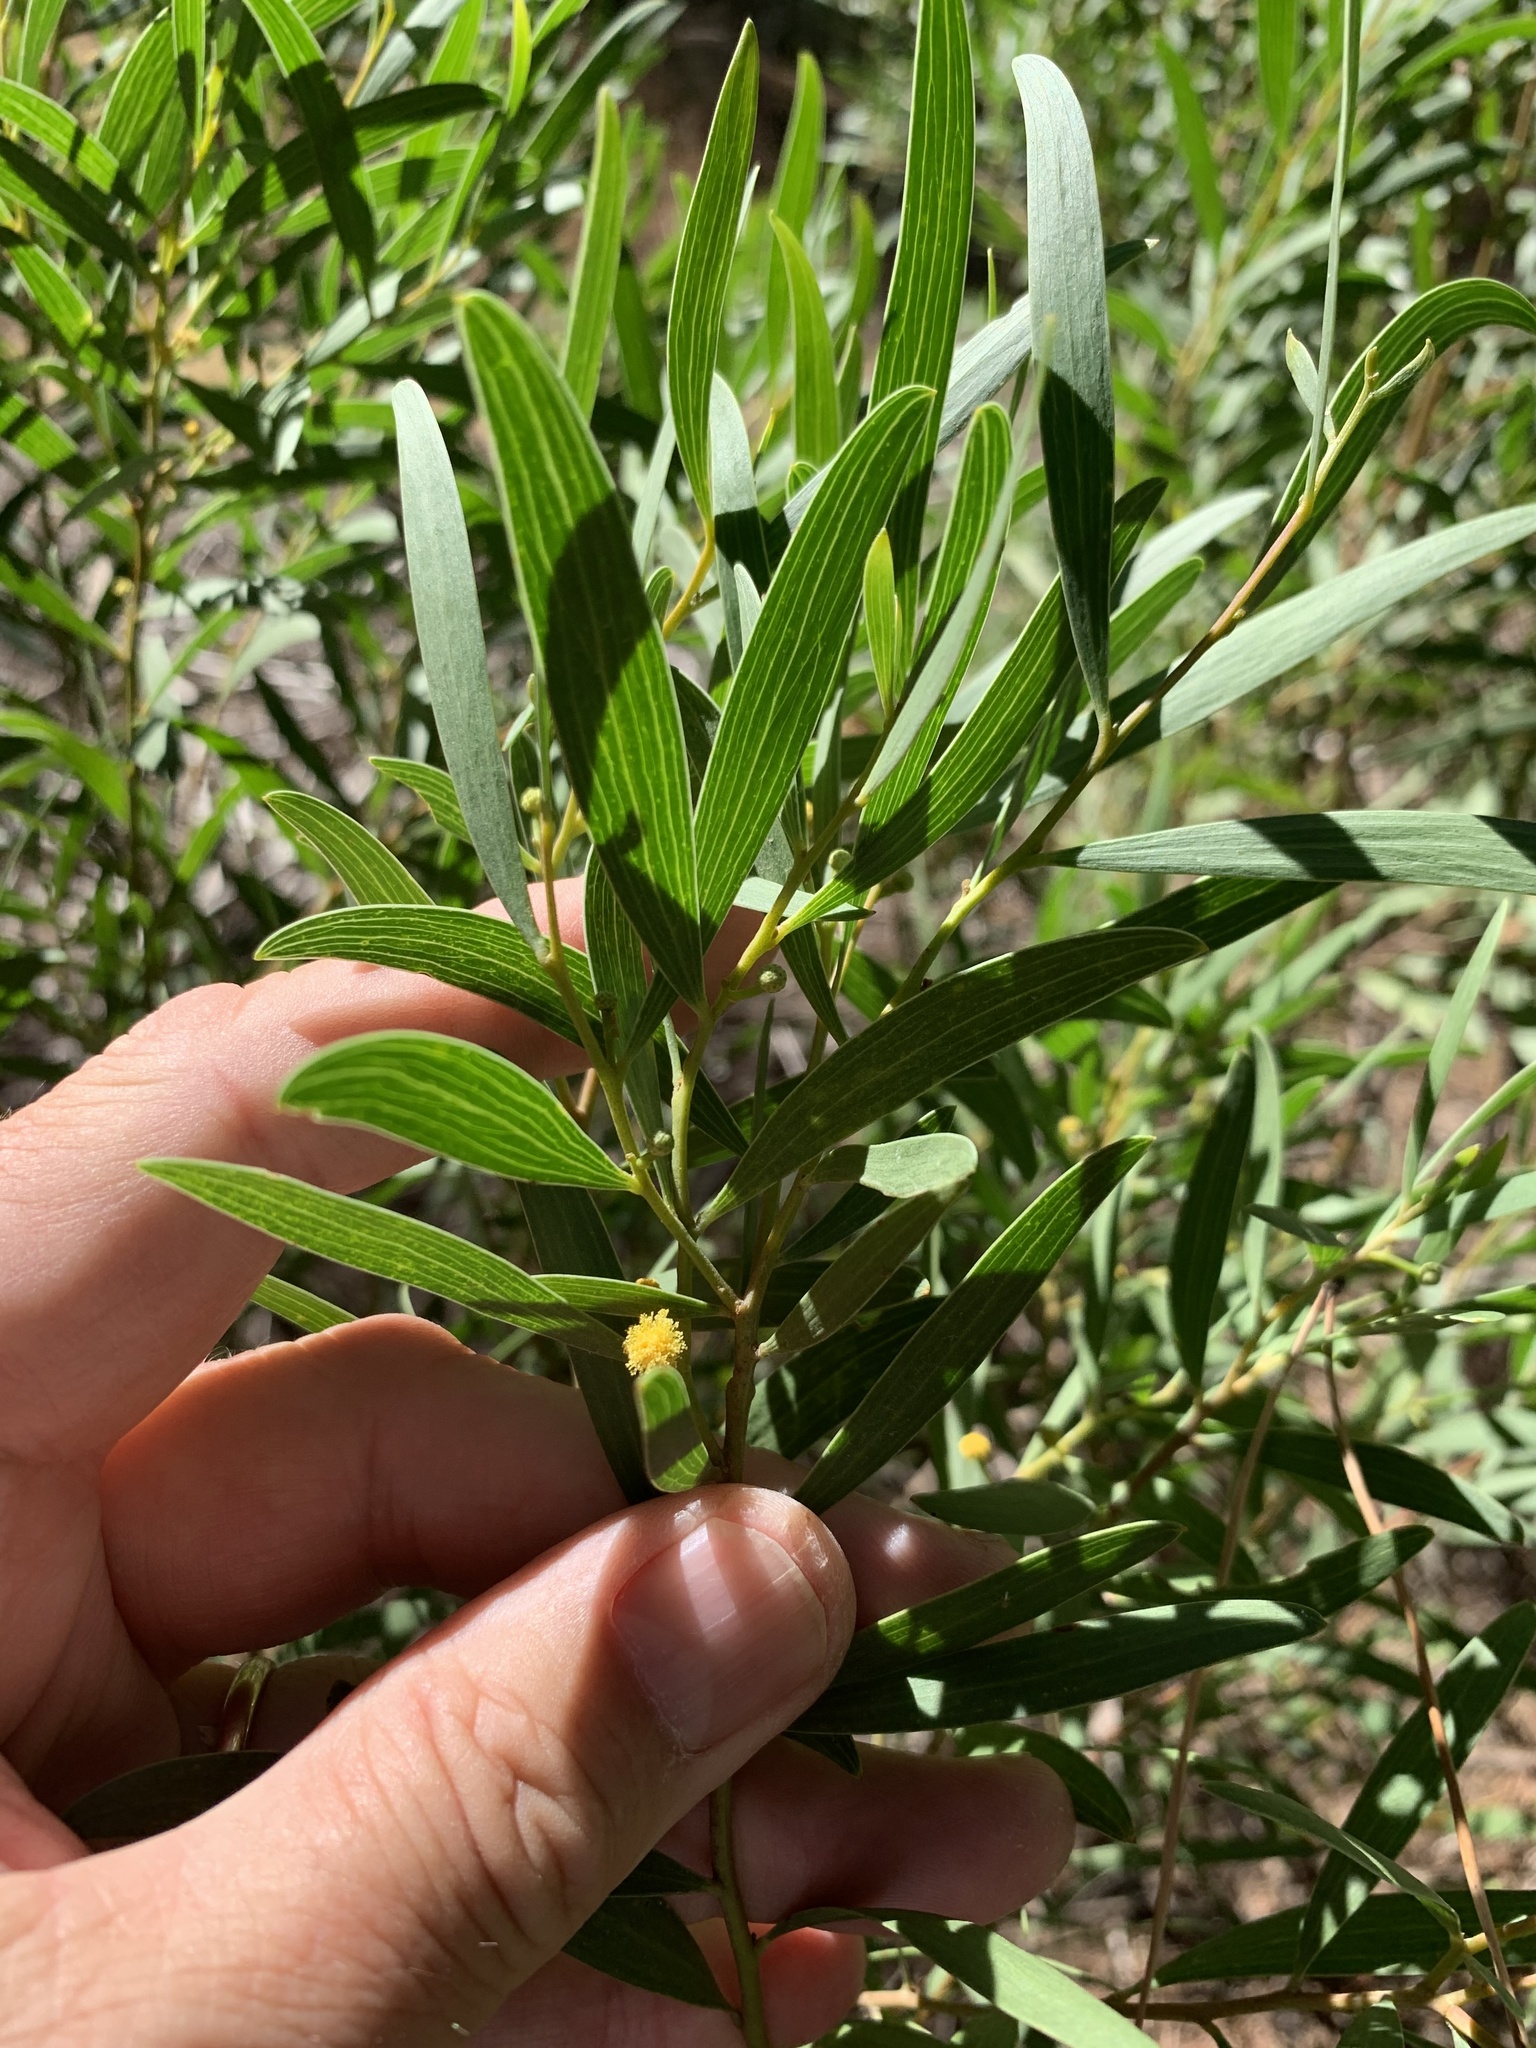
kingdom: Plantae
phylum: Tracheophyta
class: Magnoliopsida
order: Fabales
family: Fabaceae
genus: Acacia
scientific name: Acacia cyclops
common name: Coastal wattle
